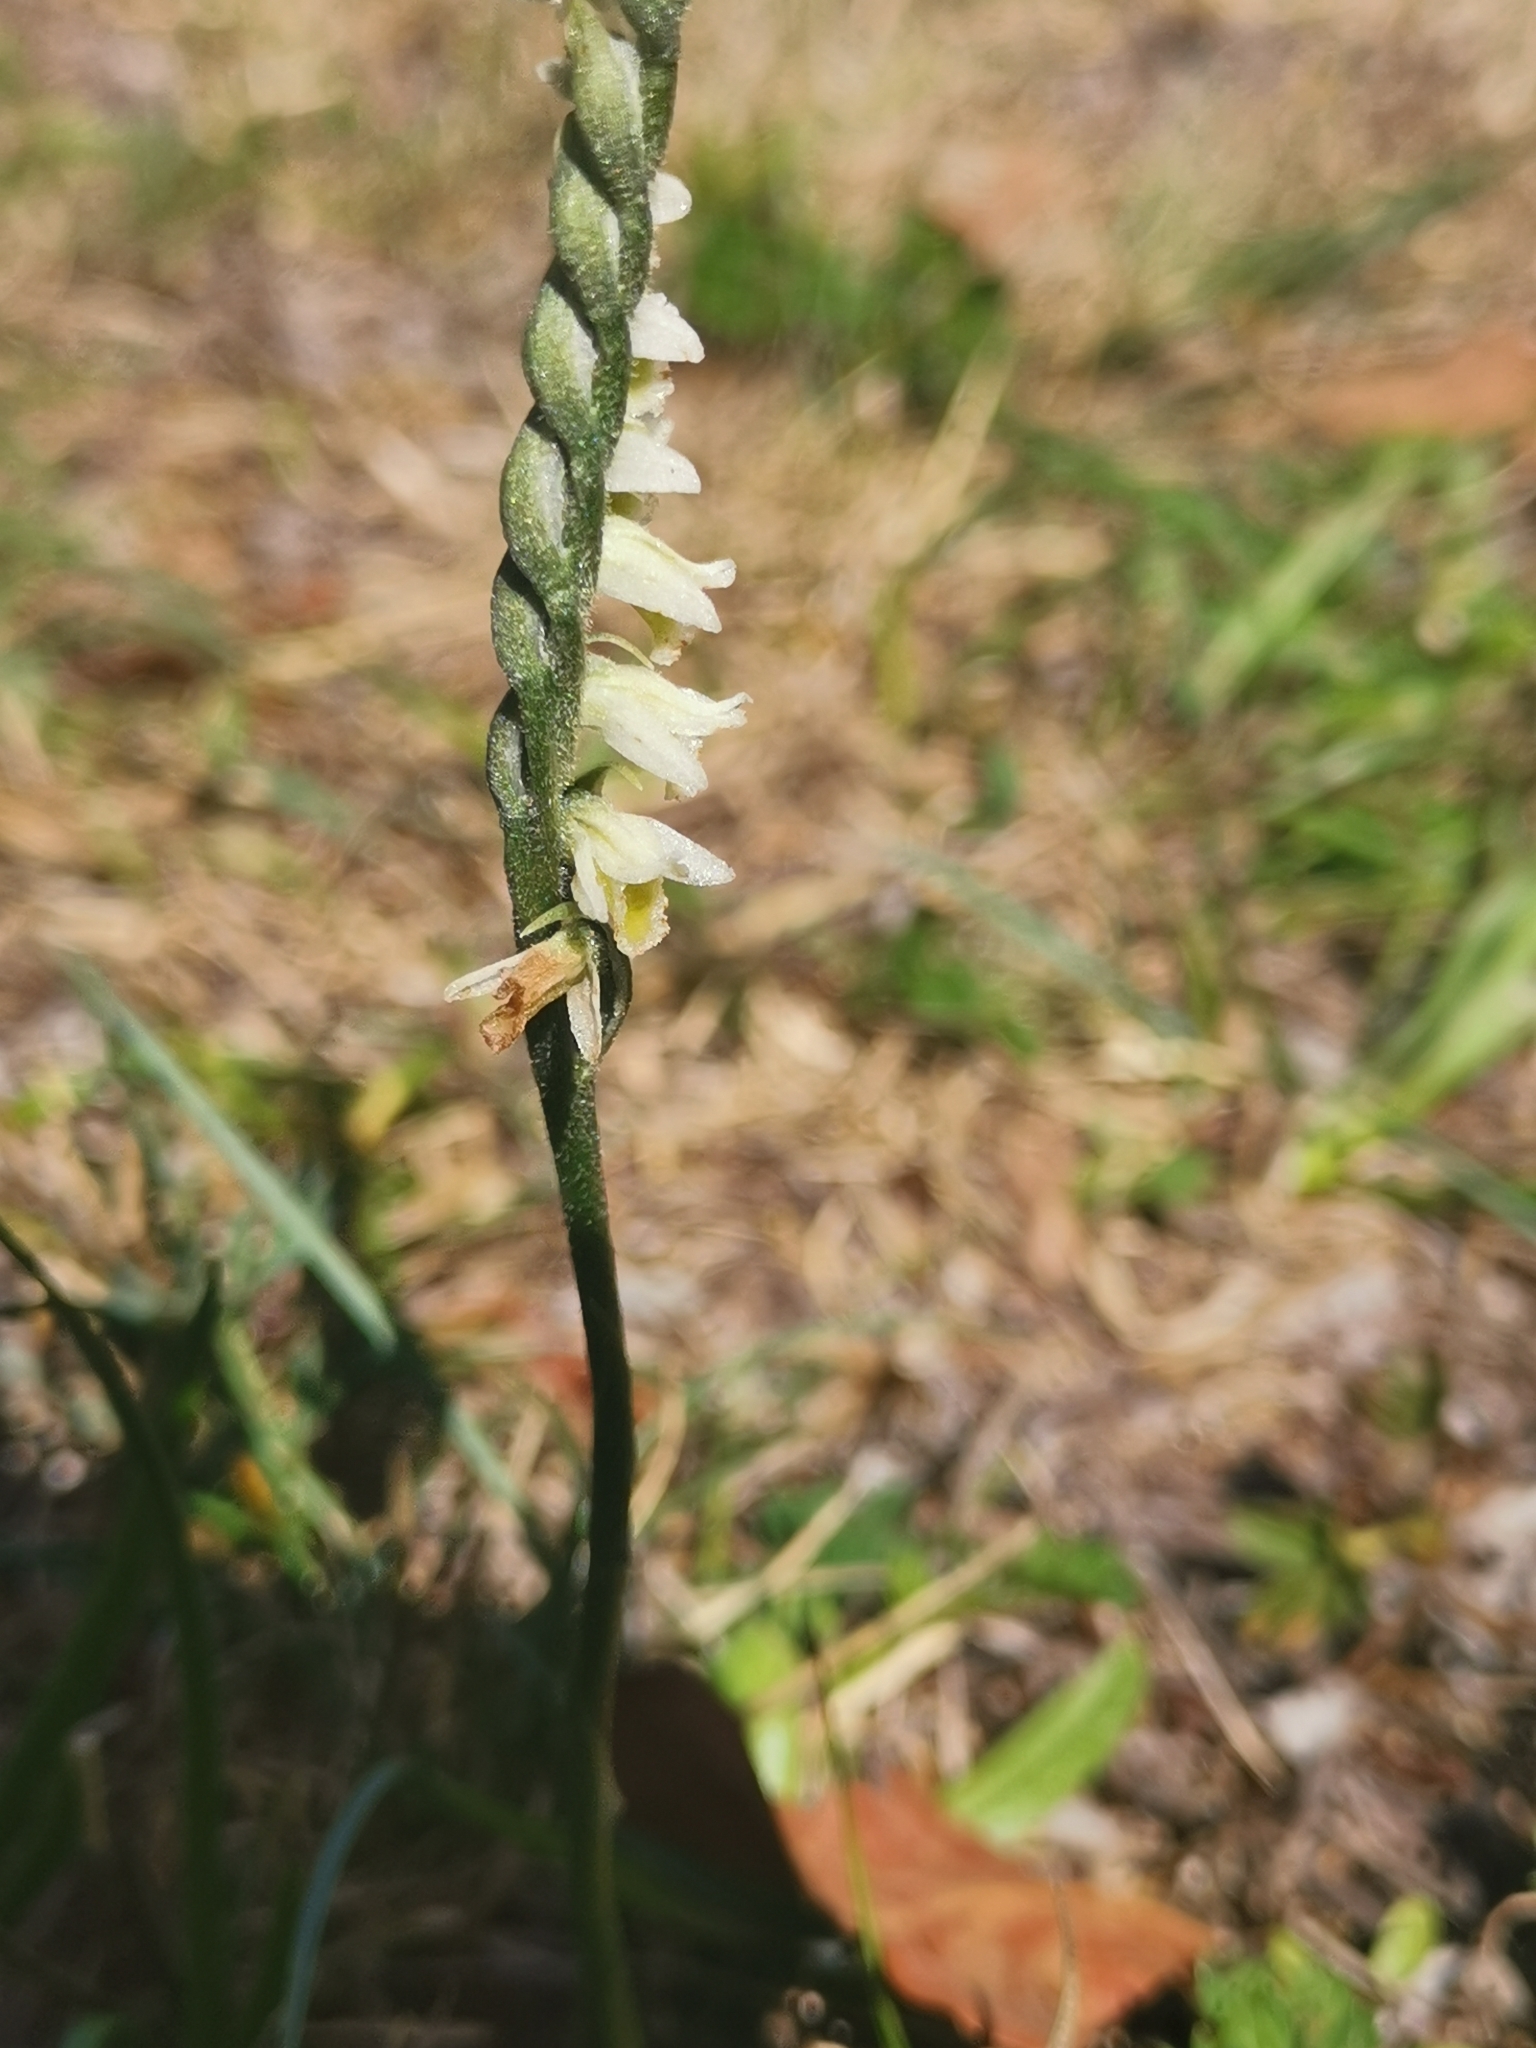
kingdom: Plantae
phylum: Tracheophyta
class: Liliopsida
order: Asparagales
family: Orchidaceae
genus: Spiranthes
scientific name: Spiranthes spiralis
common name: Autumn lady's-tresses
